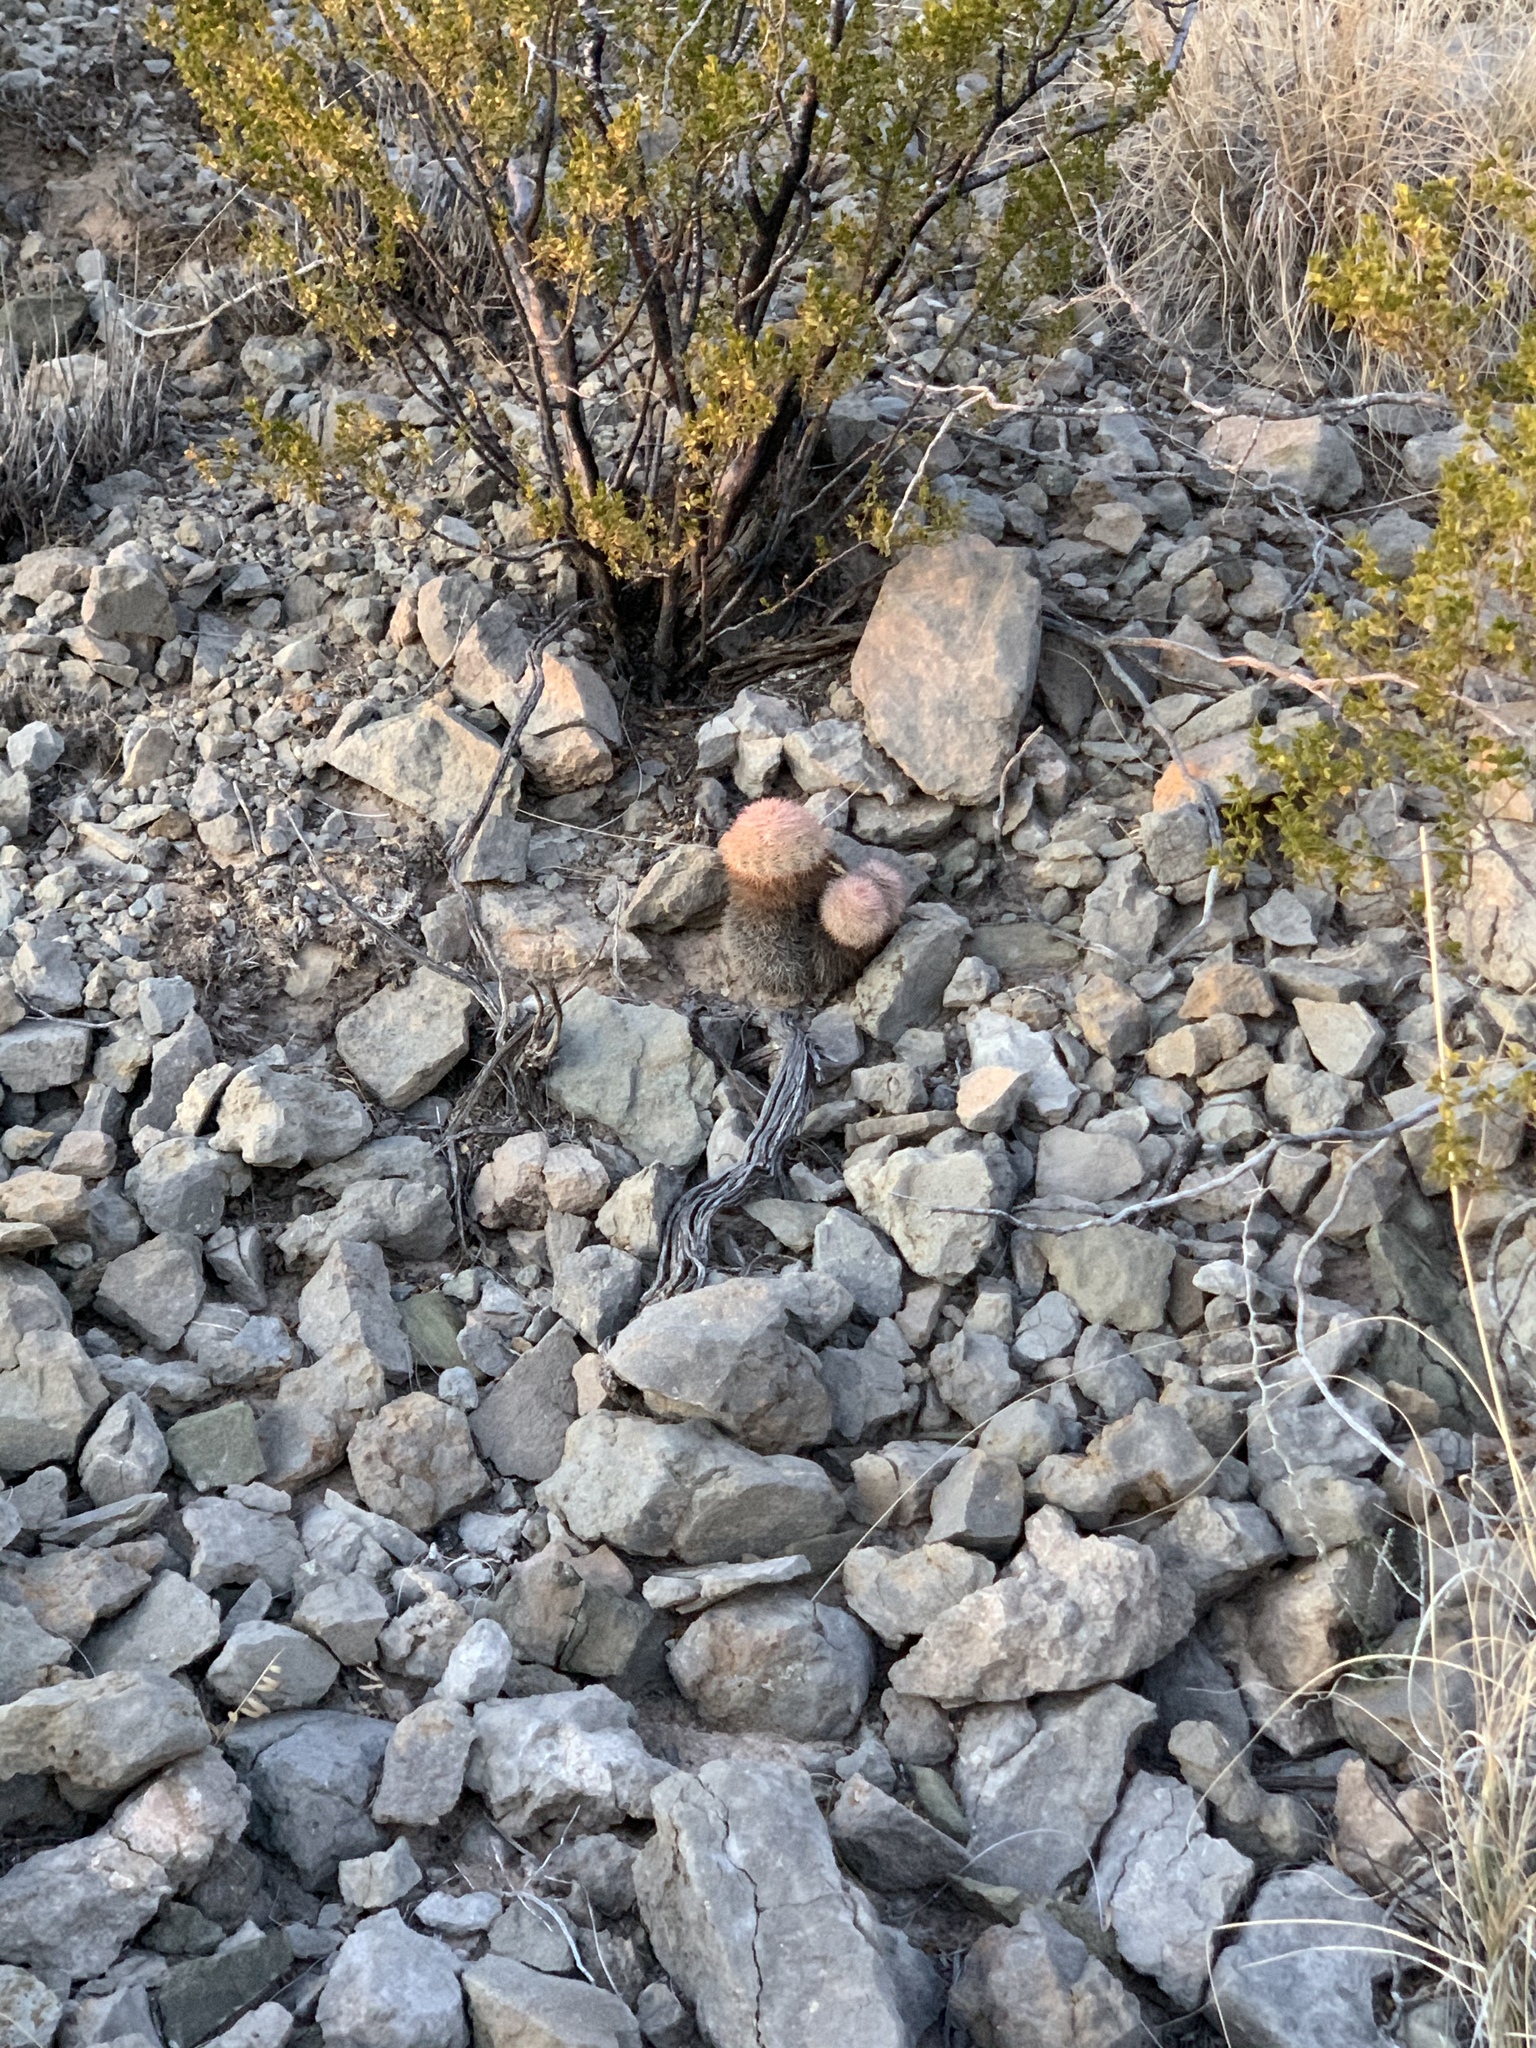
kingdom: Plantae
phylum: Tracheophyta
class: Magnoliopsida
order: Caryophyllales
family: Cactaceae
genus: Echinocereus
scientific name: Echinocereus dasyacanthus
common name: Spiny hedgehog cactus
